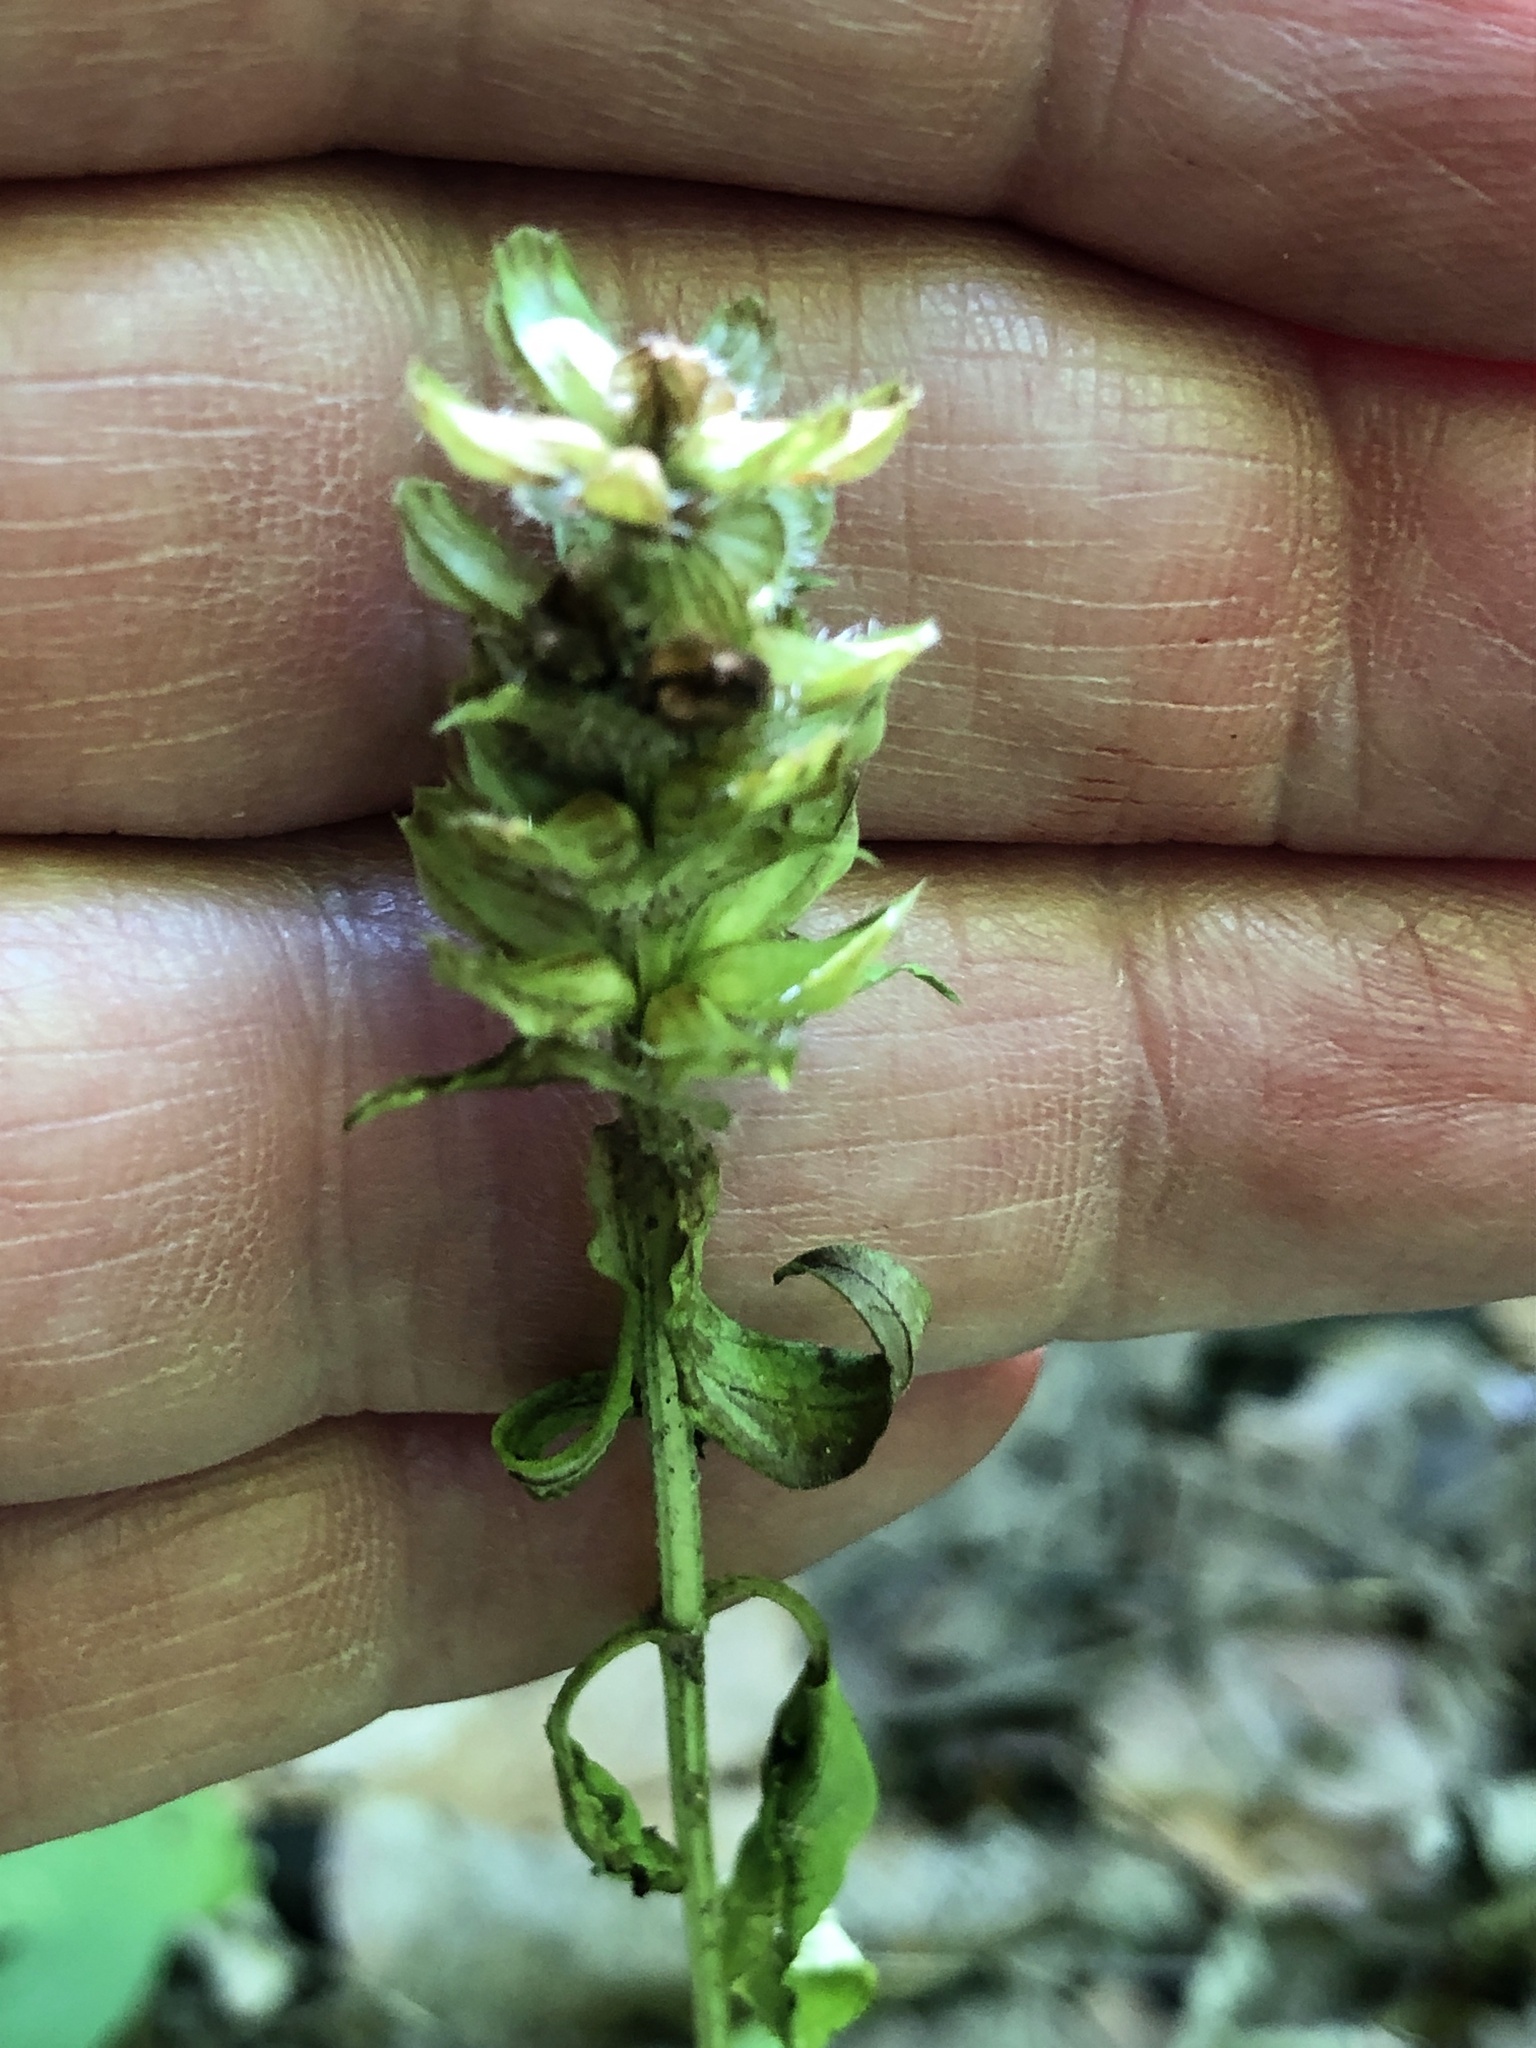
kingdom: Plantae
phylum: Tracheophyta
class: Magnoliopsida
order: Lamiales
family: Lamiaceae
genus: Prunella
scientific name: Prunella vulgaris
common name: Heal-all
